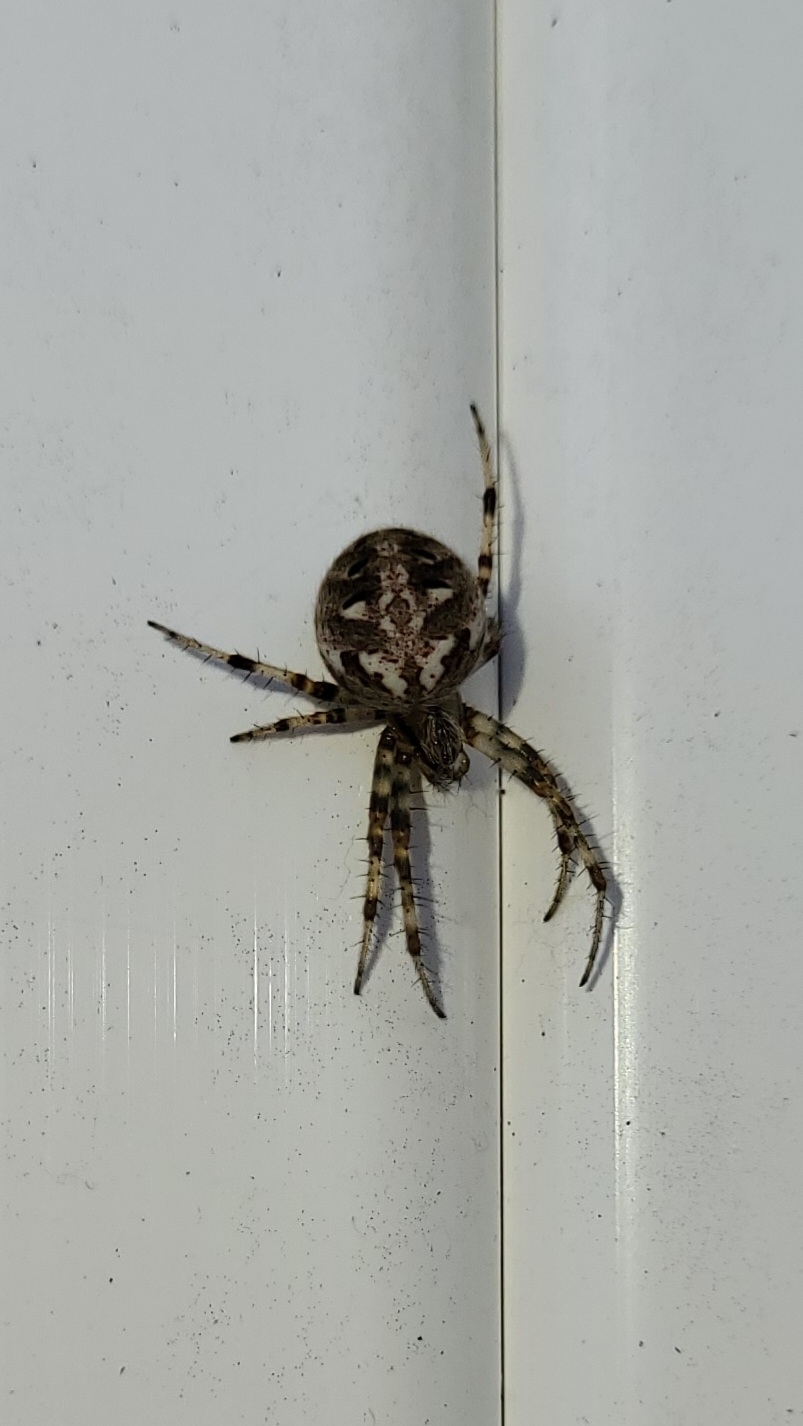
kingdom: Animalia
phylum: Arthropoda
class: Arachnida
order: Araneae
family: Araneidae
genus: Neoscona
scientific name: Neoscona arabesca
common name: Orb weavers
